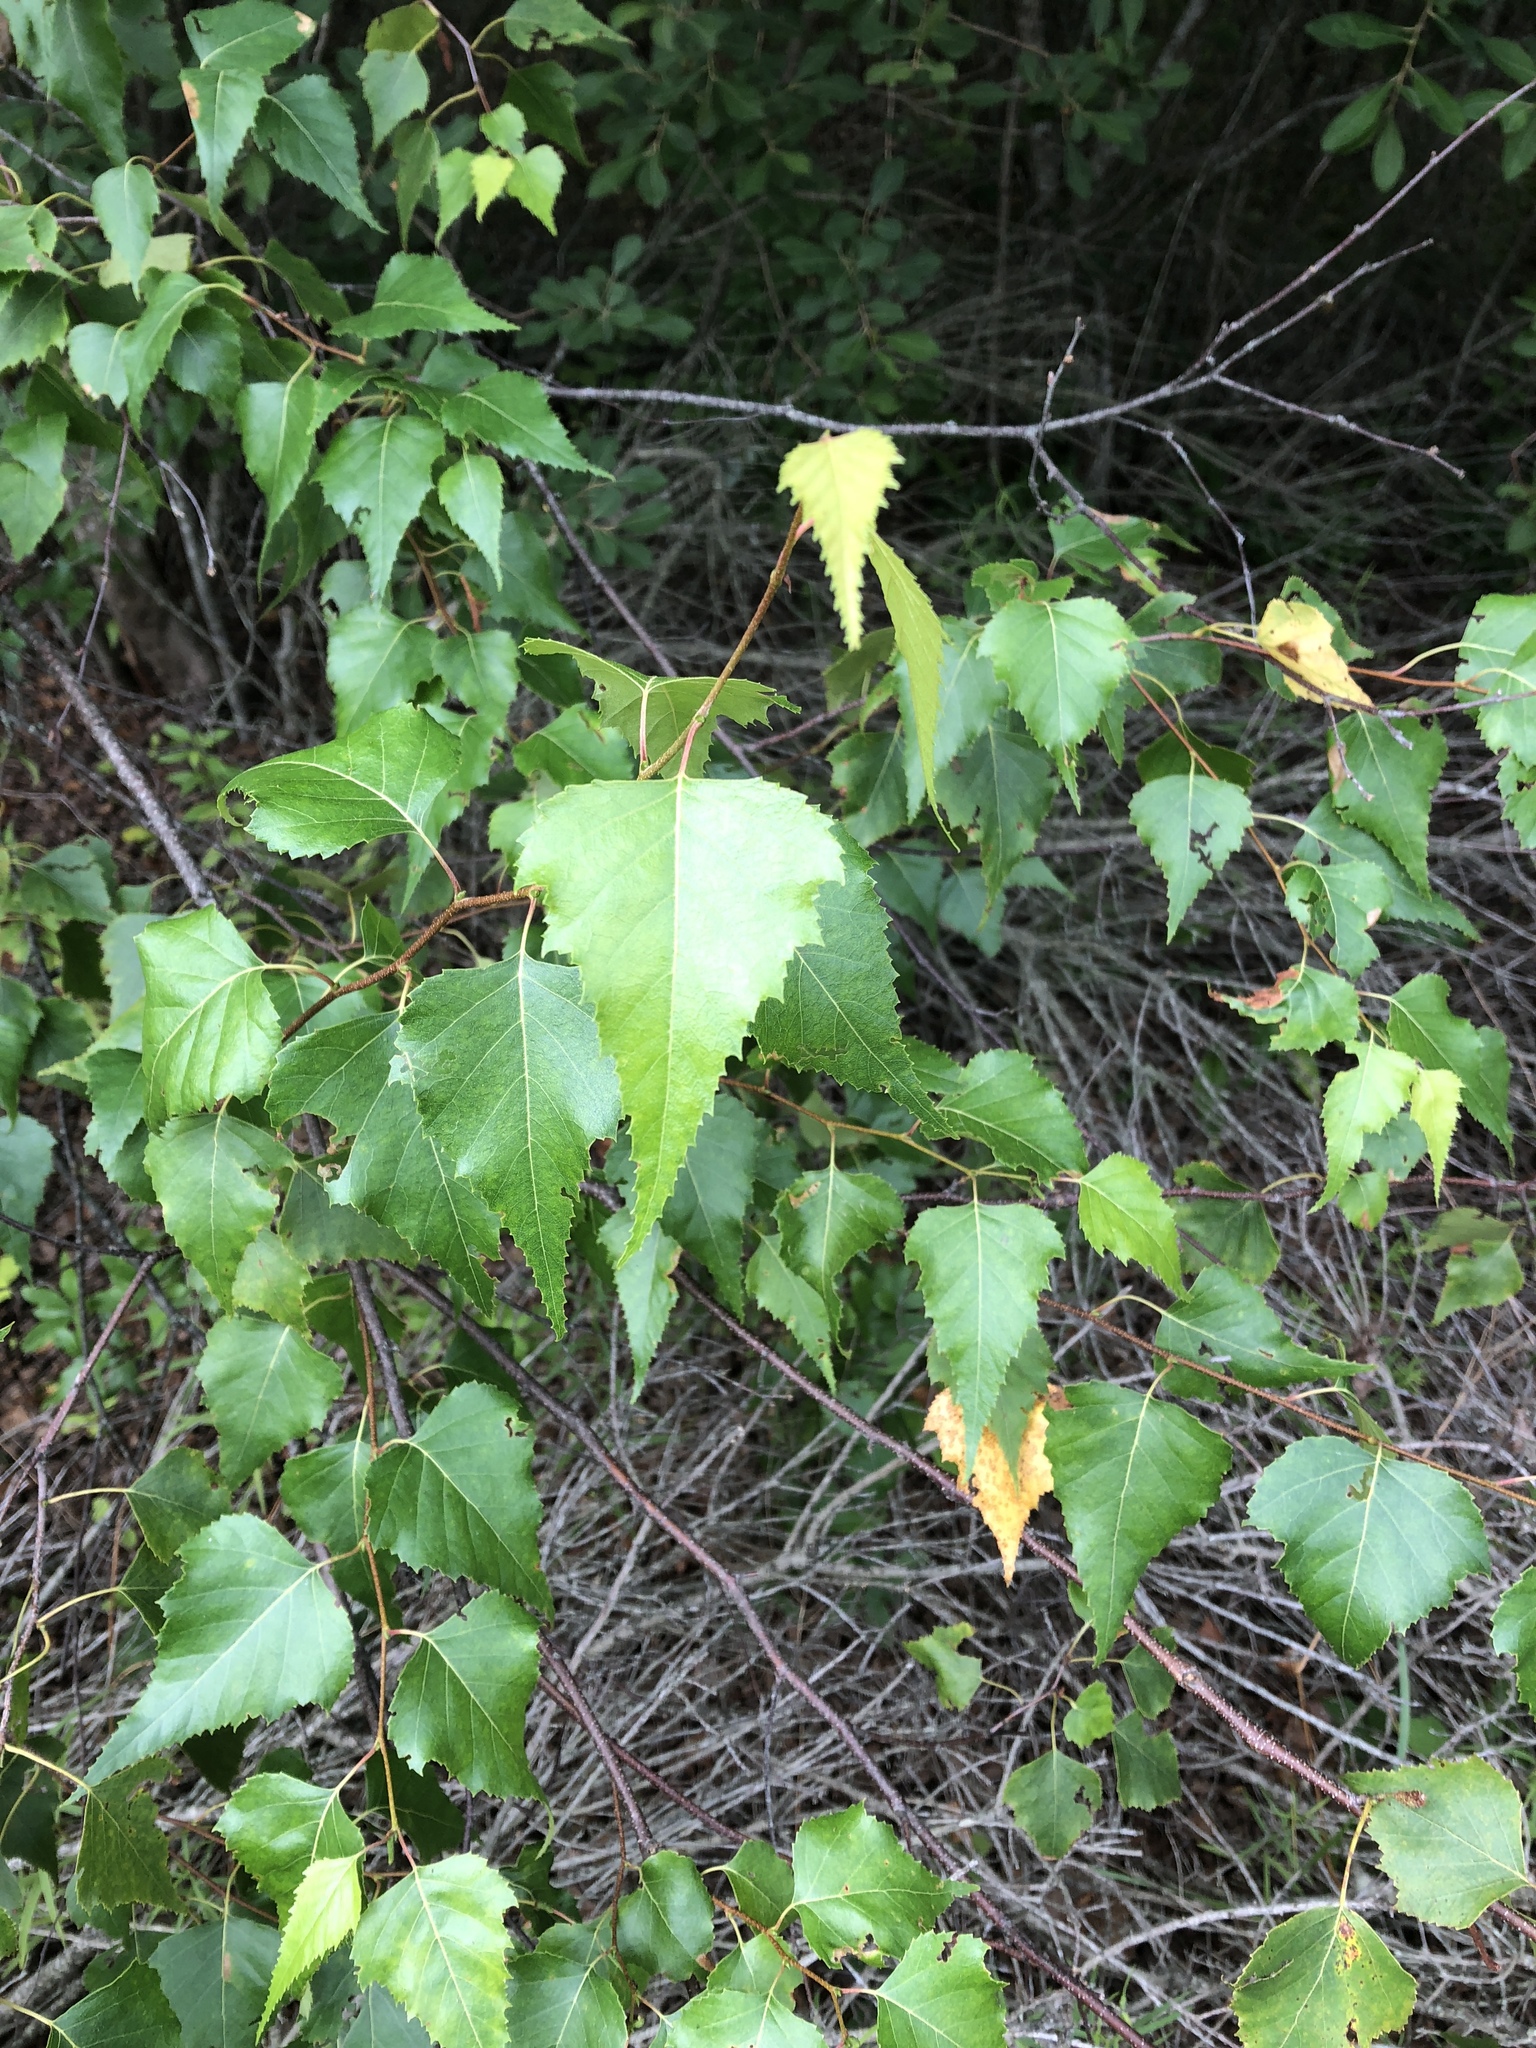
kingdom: Plantae
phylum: Tracheophyta
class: Magnoliopsida
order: Fagales
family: Betulaceae
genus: Betula
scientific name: Betula populifolia
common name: Fire birch
